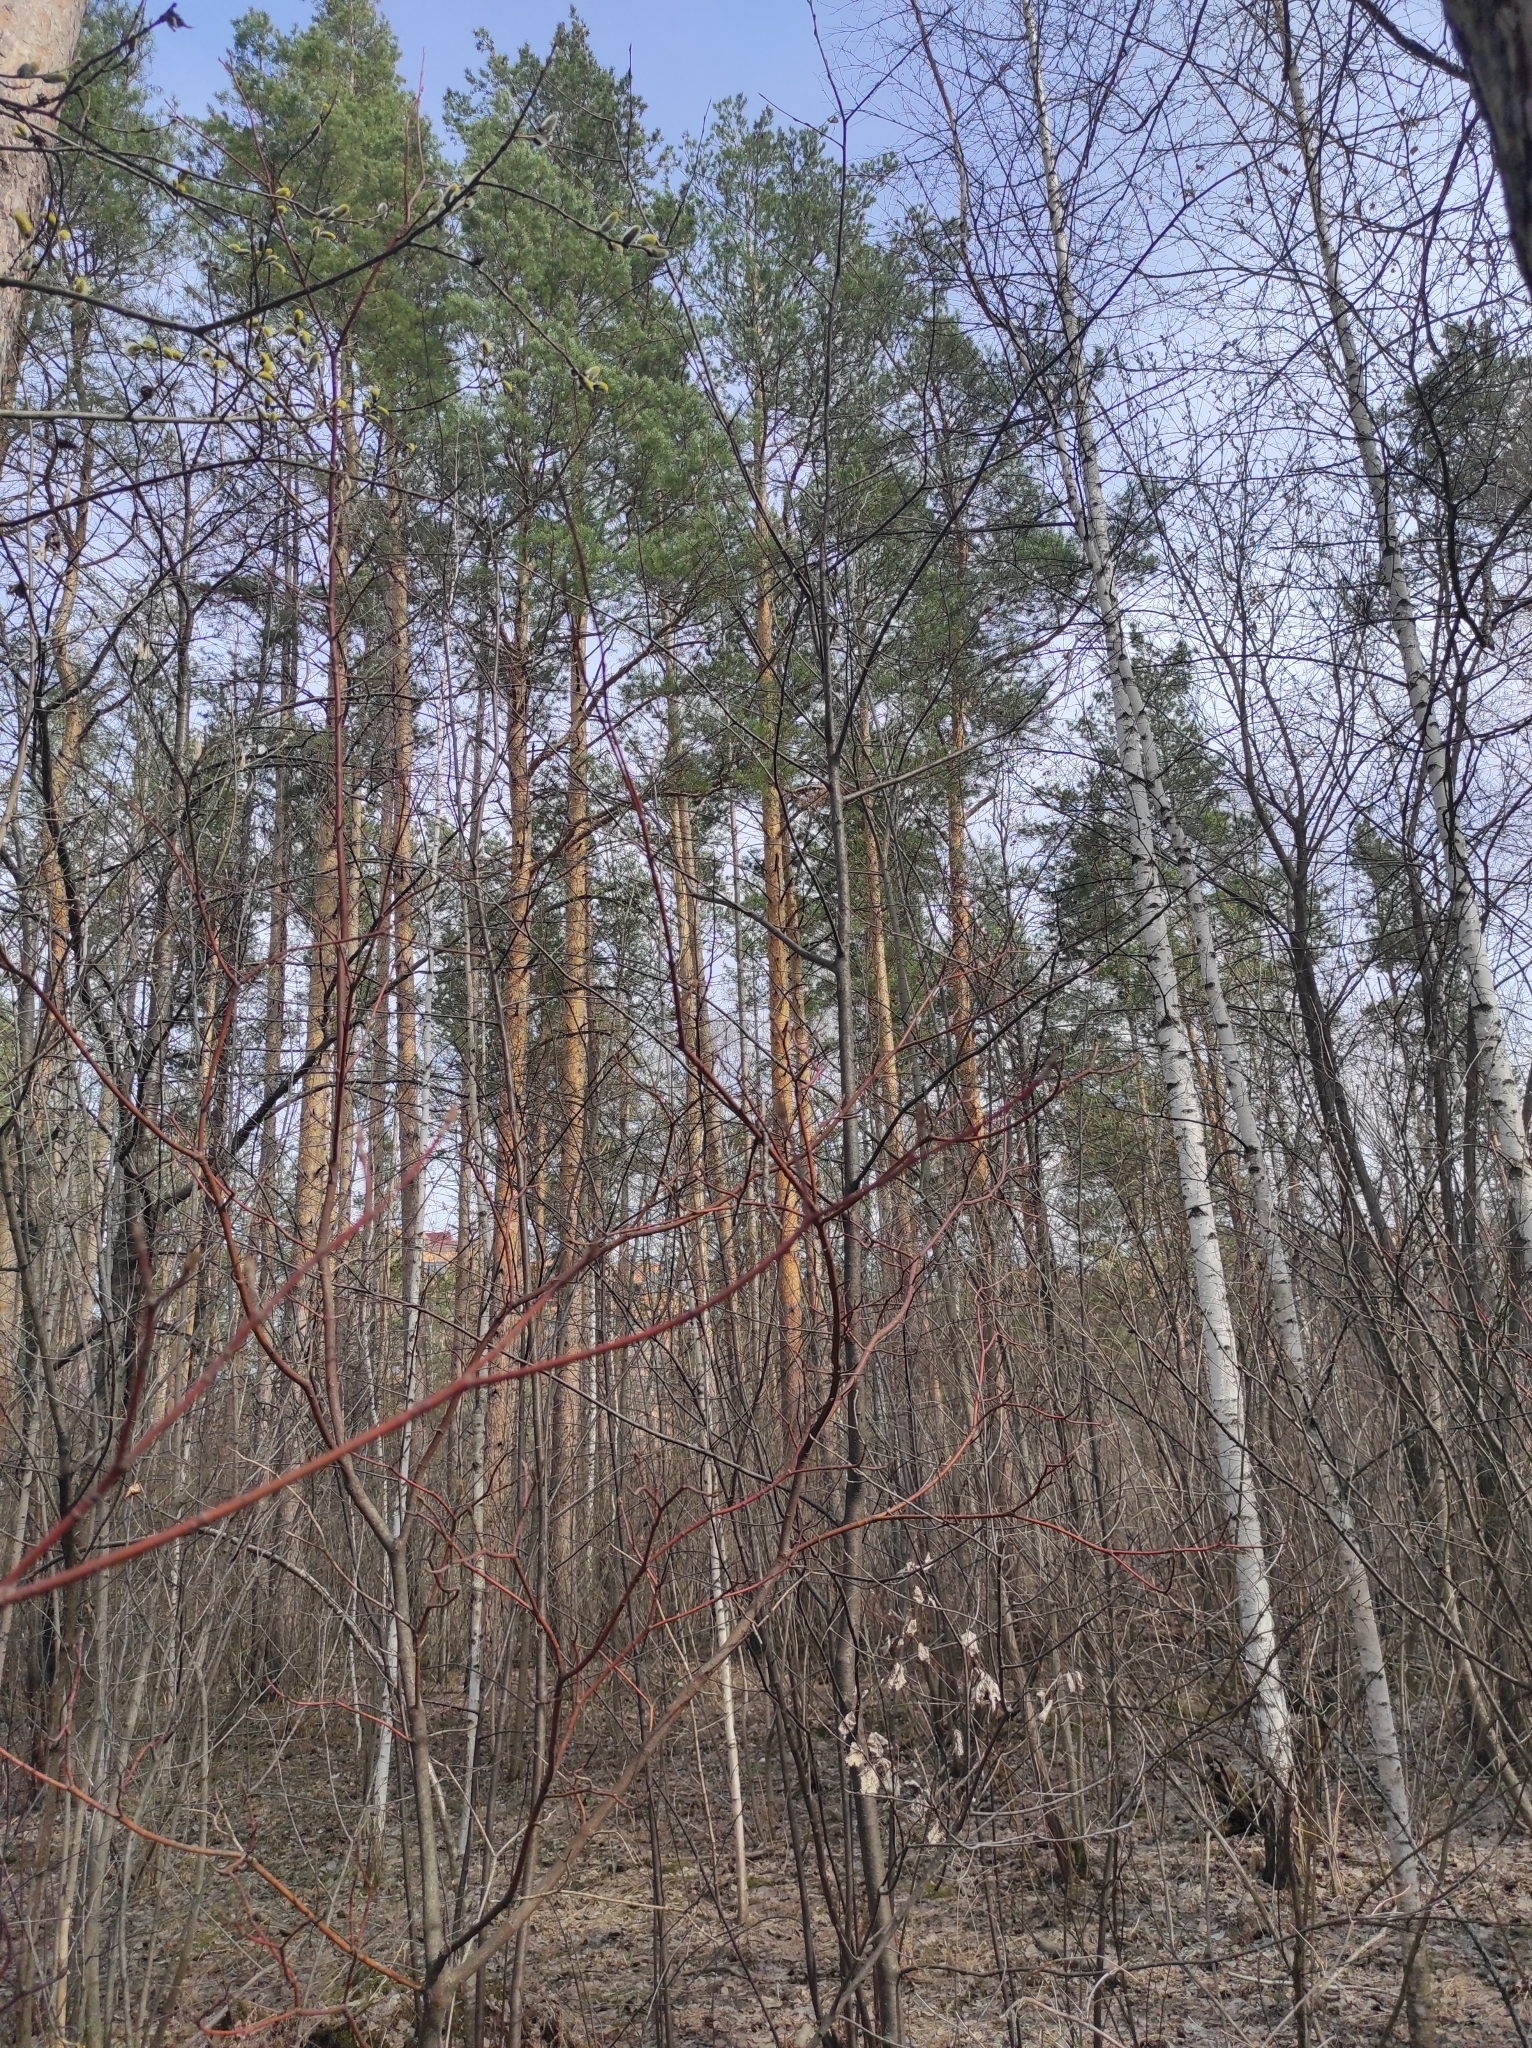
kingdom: Plantae
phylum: Tracheophyta
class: Pinopsida
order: Pinales
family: Pinaceae
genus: Pinus
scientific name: Pinus sylvestris
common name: Scots pine
